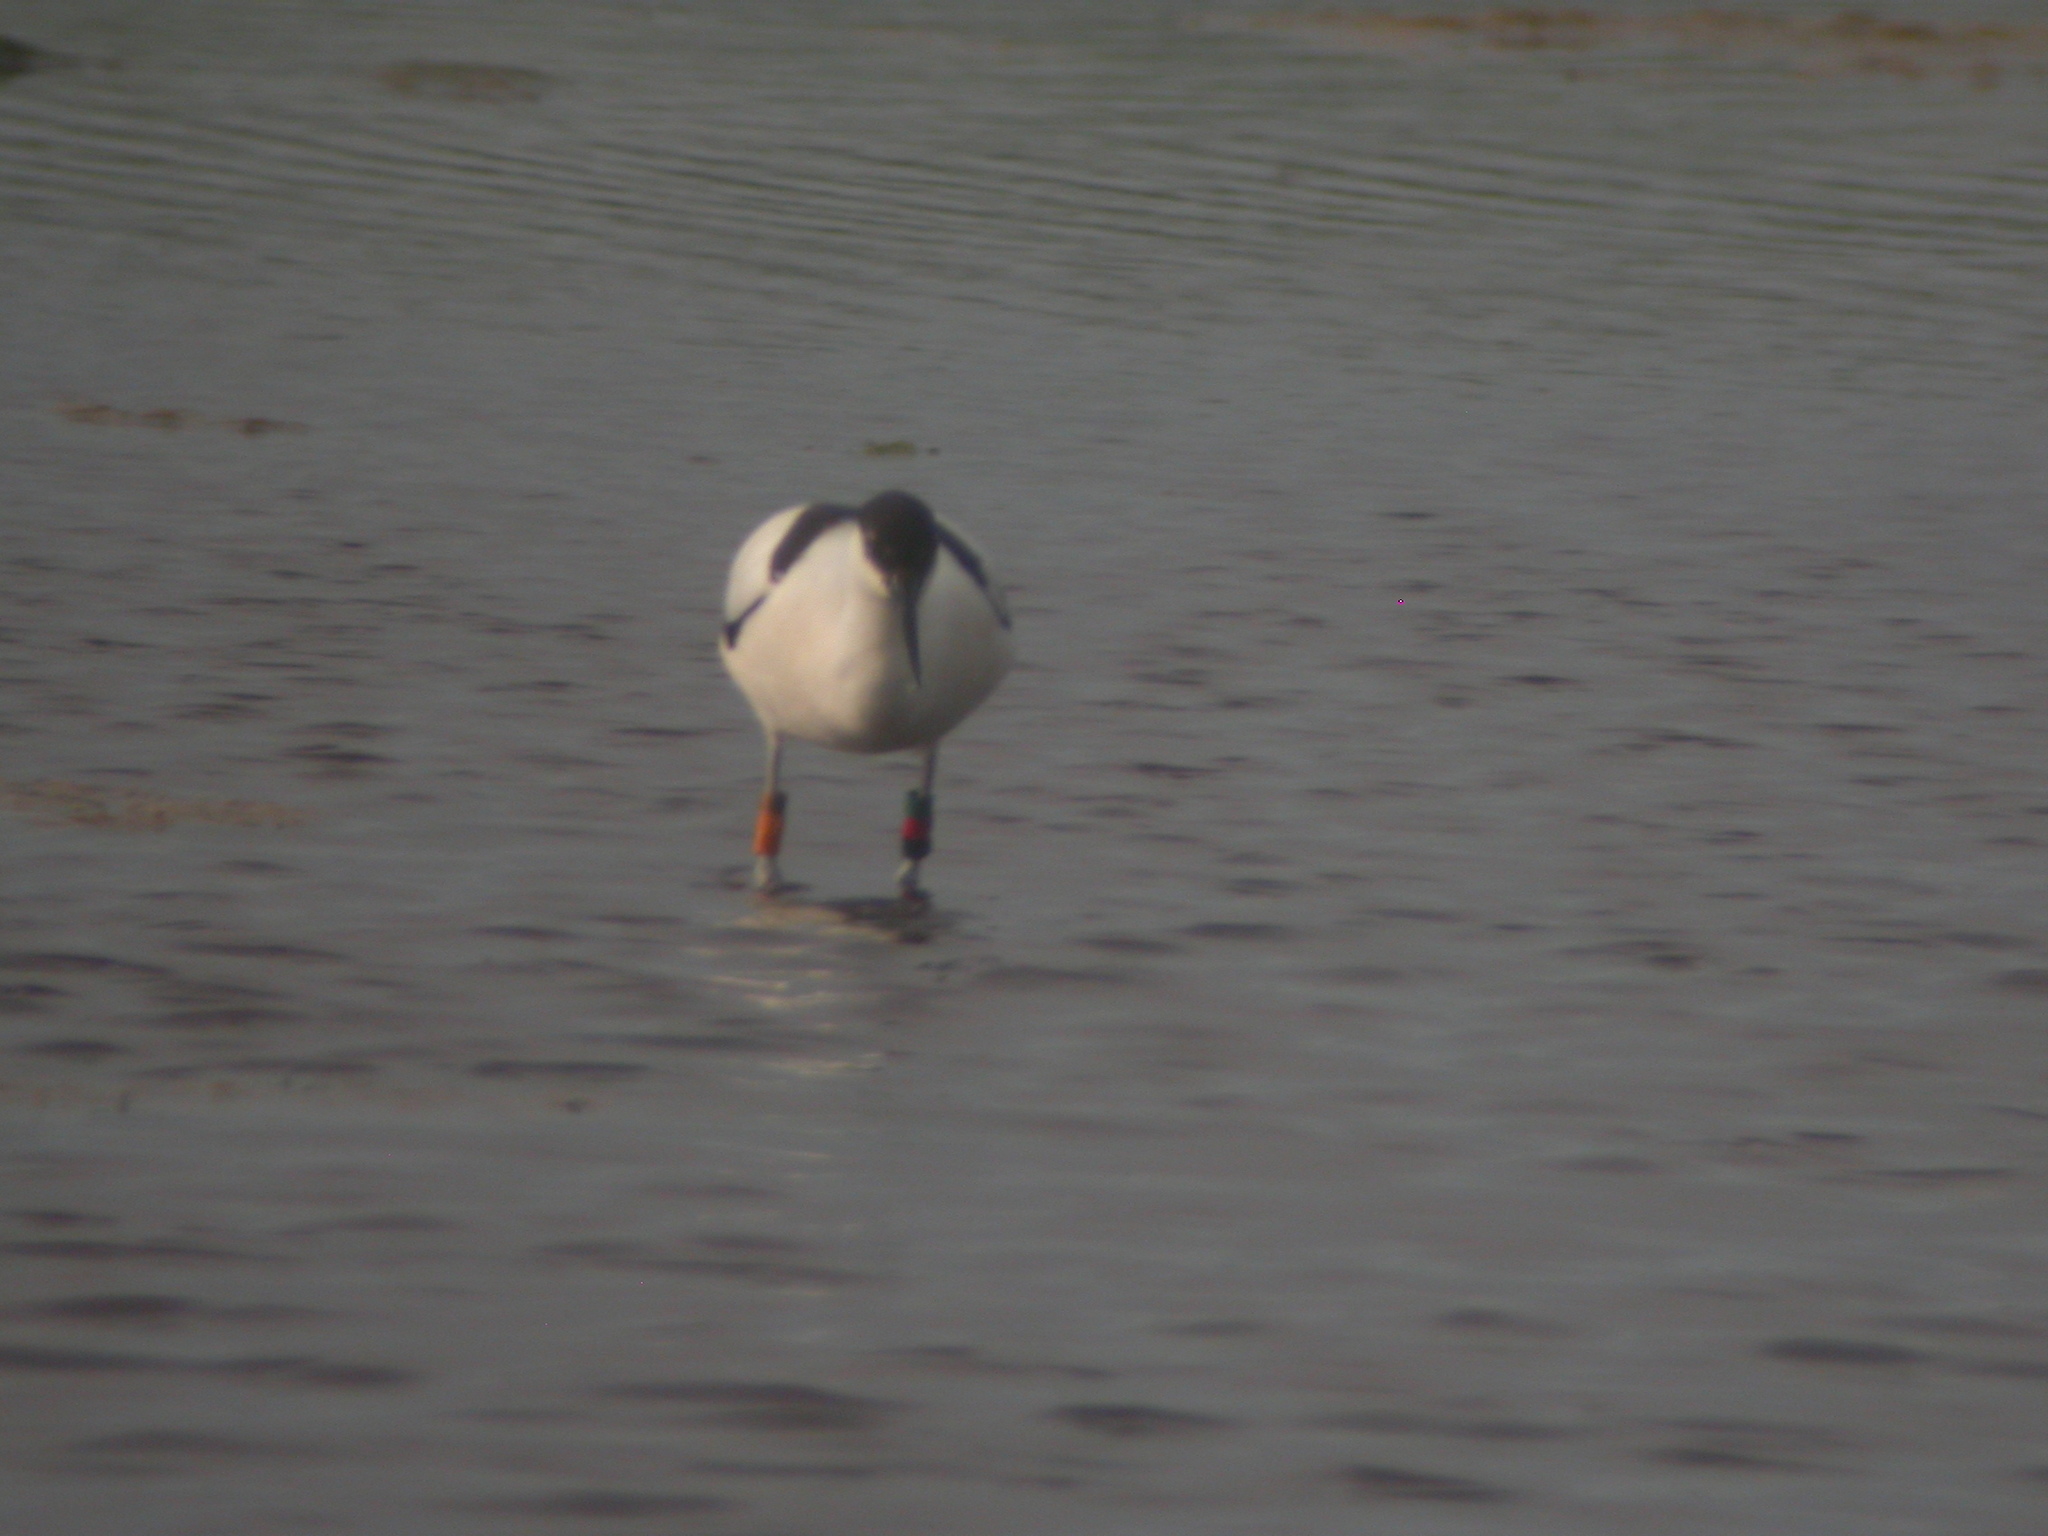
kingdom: Animalia
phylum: Chordata
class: Aves
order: Charadriiformes
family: Recurvirostridae
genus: Recurvirostra
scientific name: Recurvirostra avosetta
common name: Pied avocet
